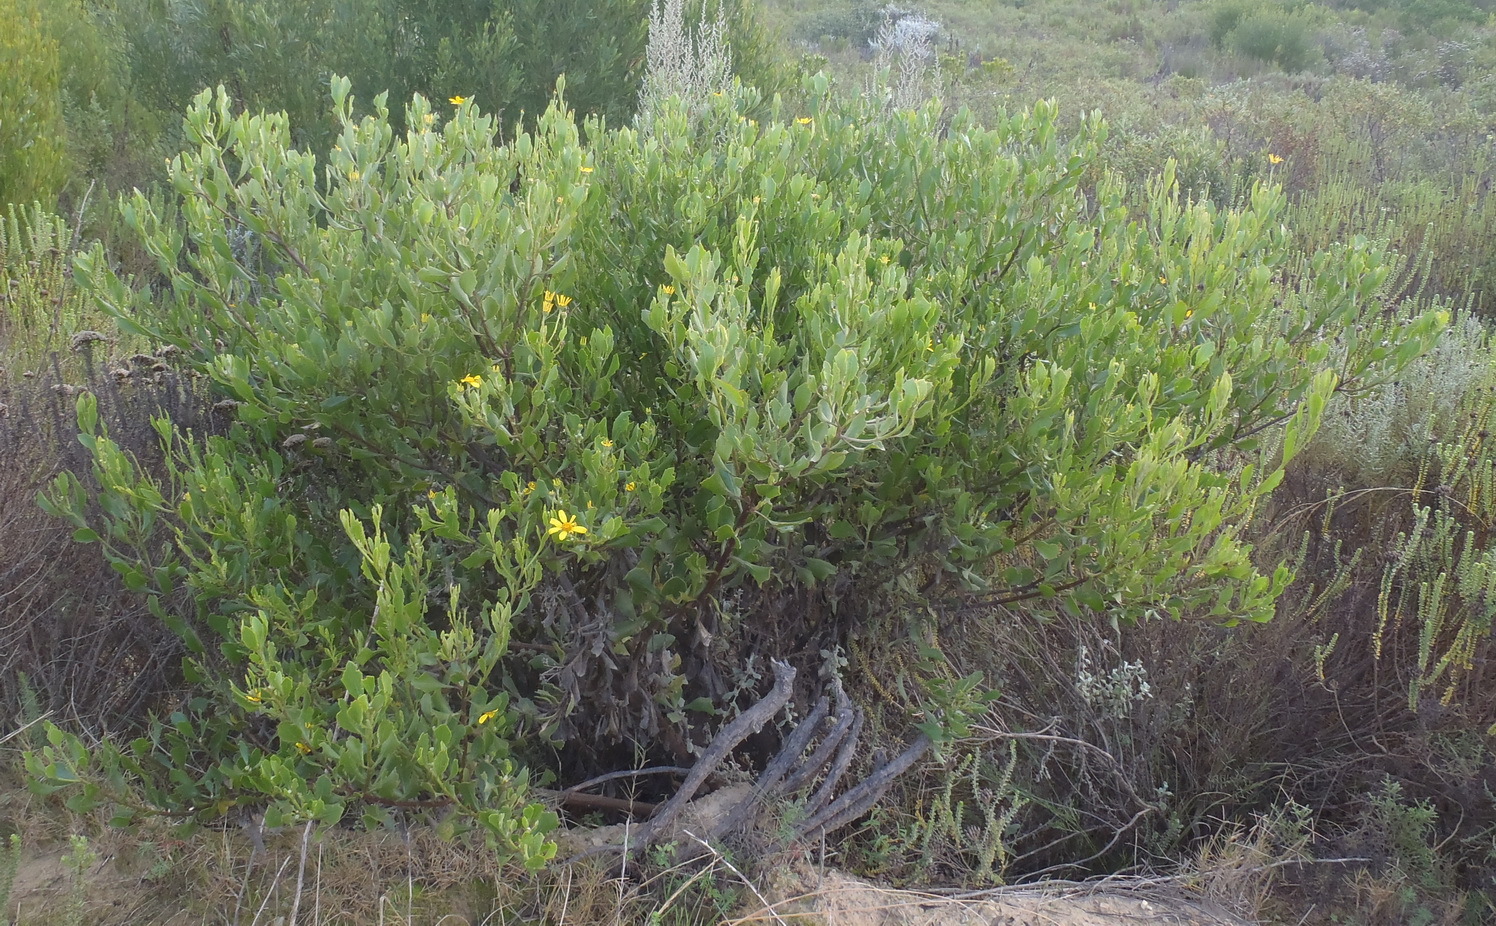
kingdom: Plantae
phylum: Tracheophyta
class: Magnoliopsida
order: Asterales
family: Asteraceae
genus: Osteospermum
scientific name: Osteospermum moniliferum
